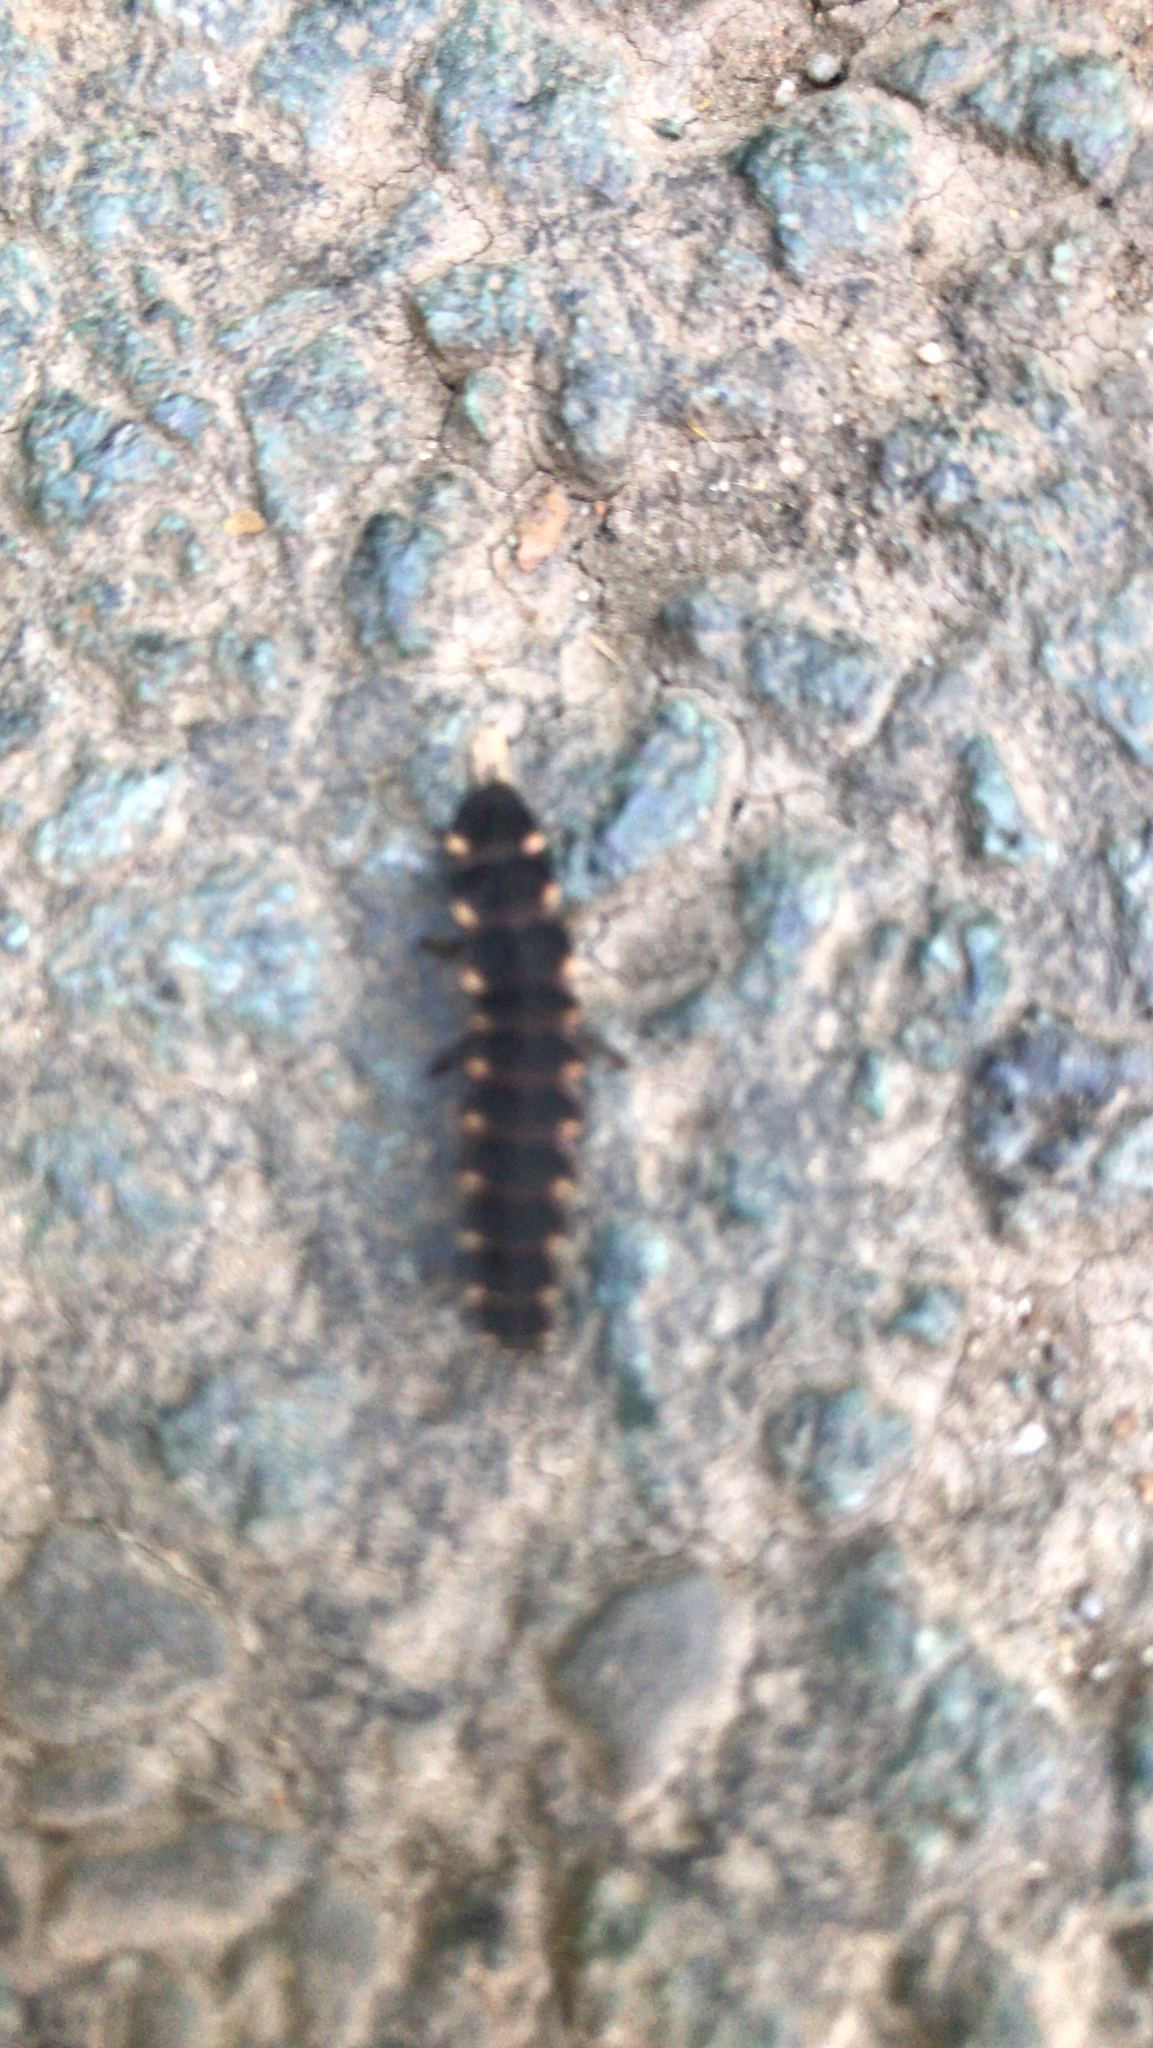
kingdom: Animalia
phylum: Arthropoda
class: Insecta
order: Coleoptera
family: Lampyridae
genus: Lampyris
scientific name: Lampyris noctiluca
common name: Glow-worm
